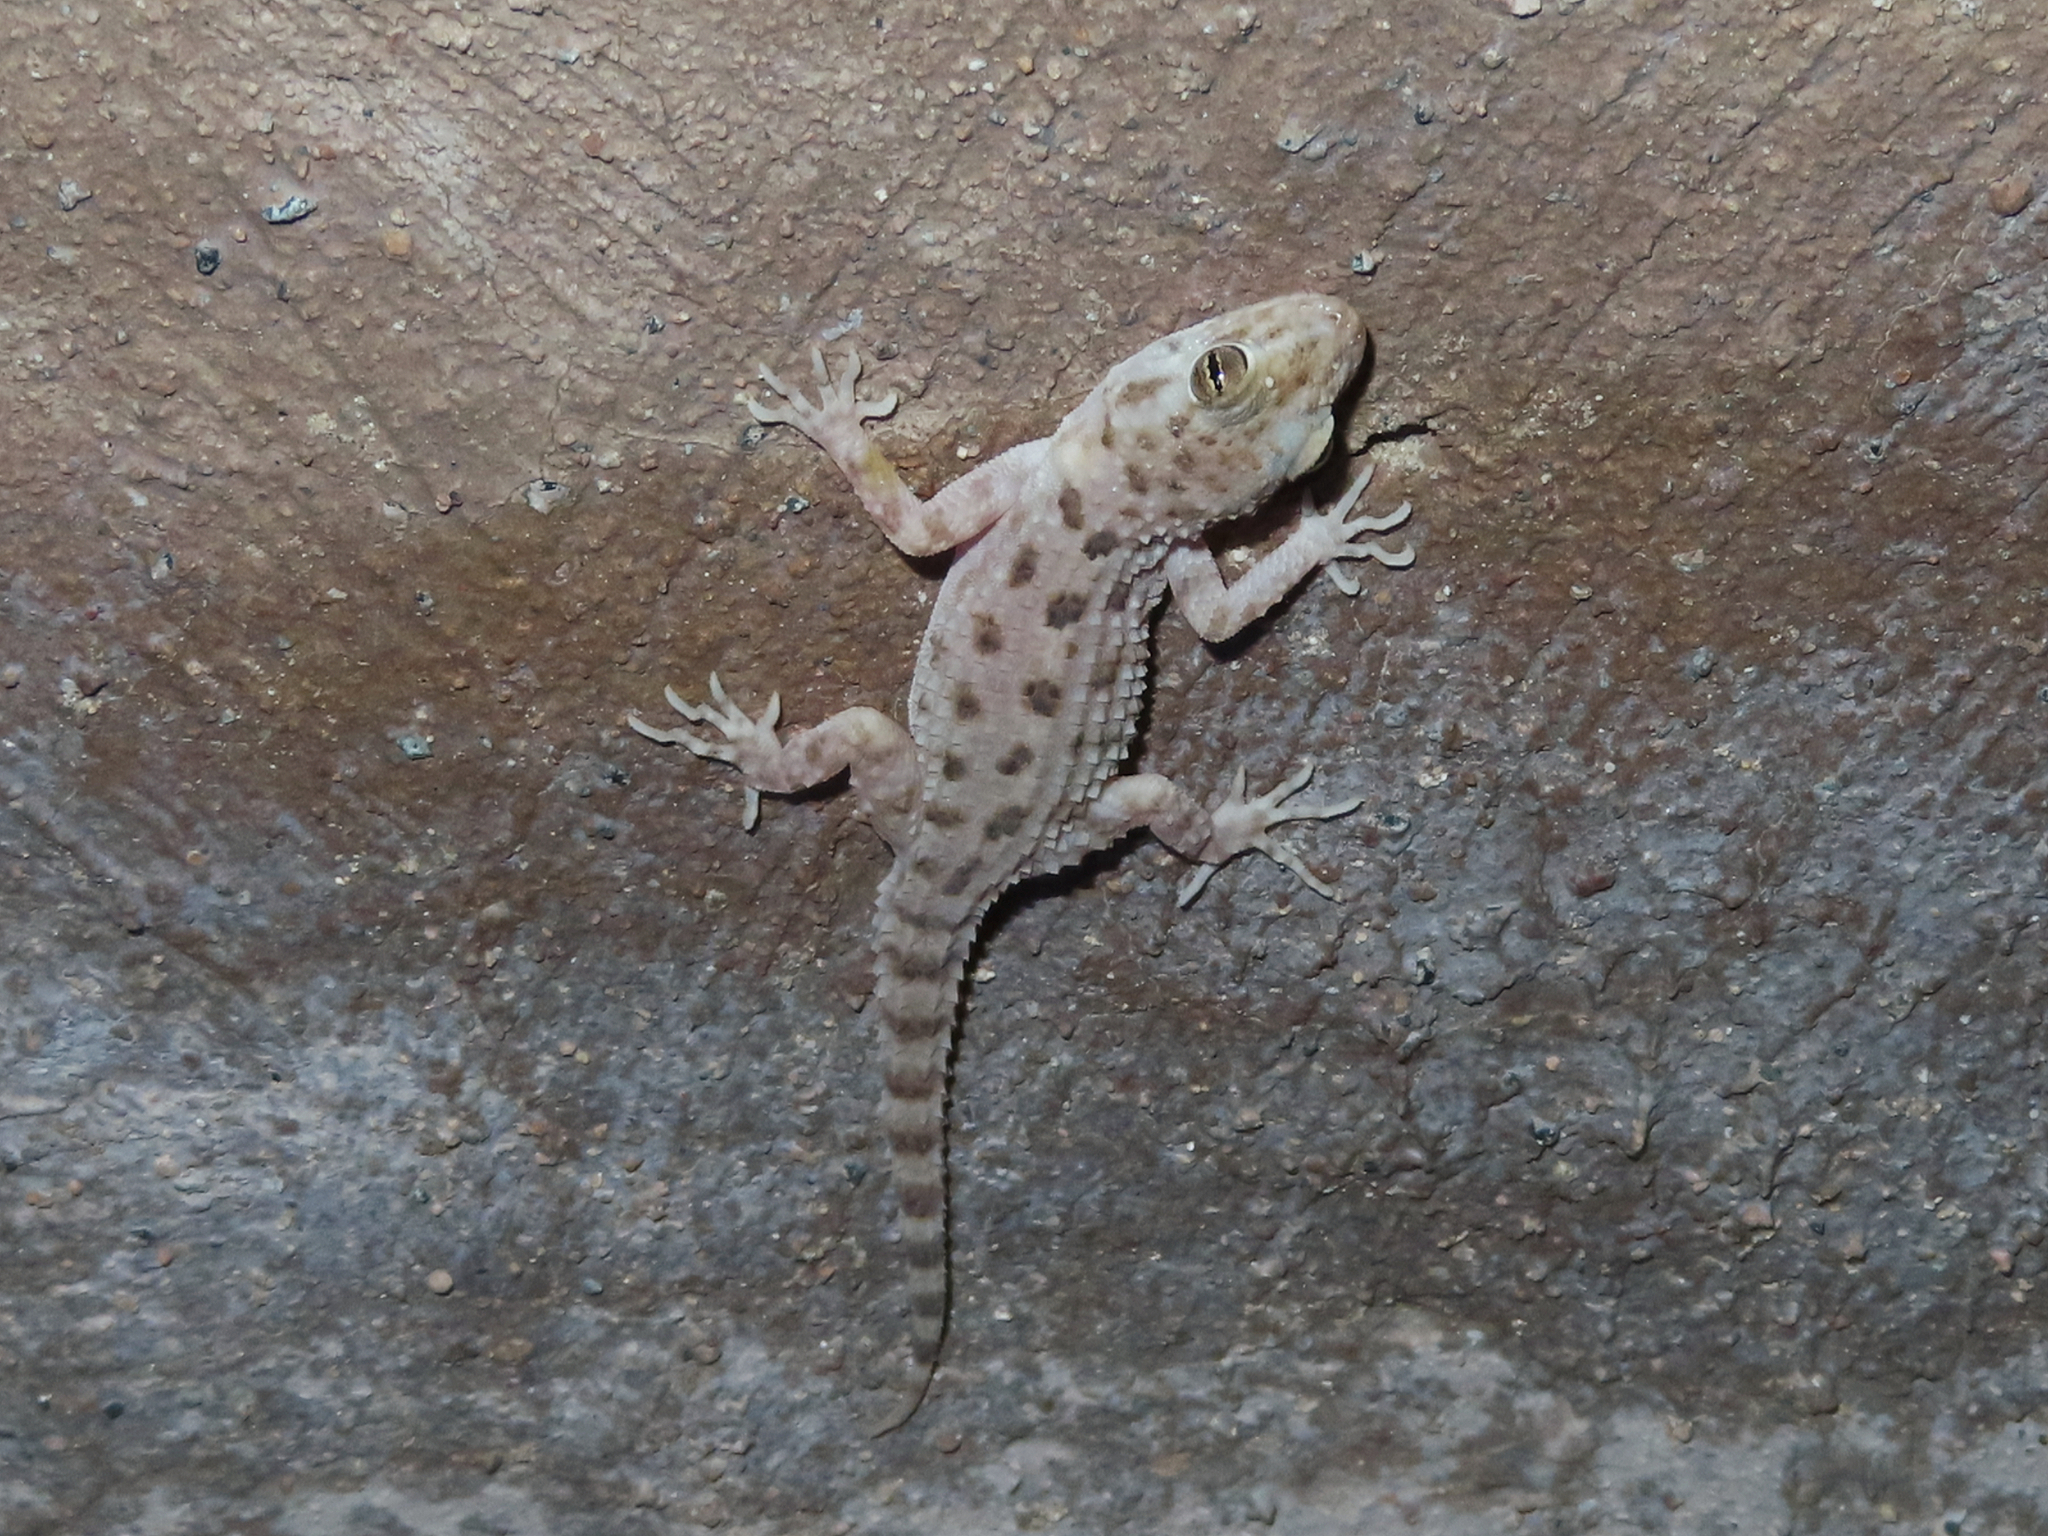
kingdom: Animalia
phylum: Chordata
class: Squamata
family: Gekkonidae
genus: Cyrtopodion
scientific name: Cyrtopodion scabrum
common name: Rough-tailed gecko
